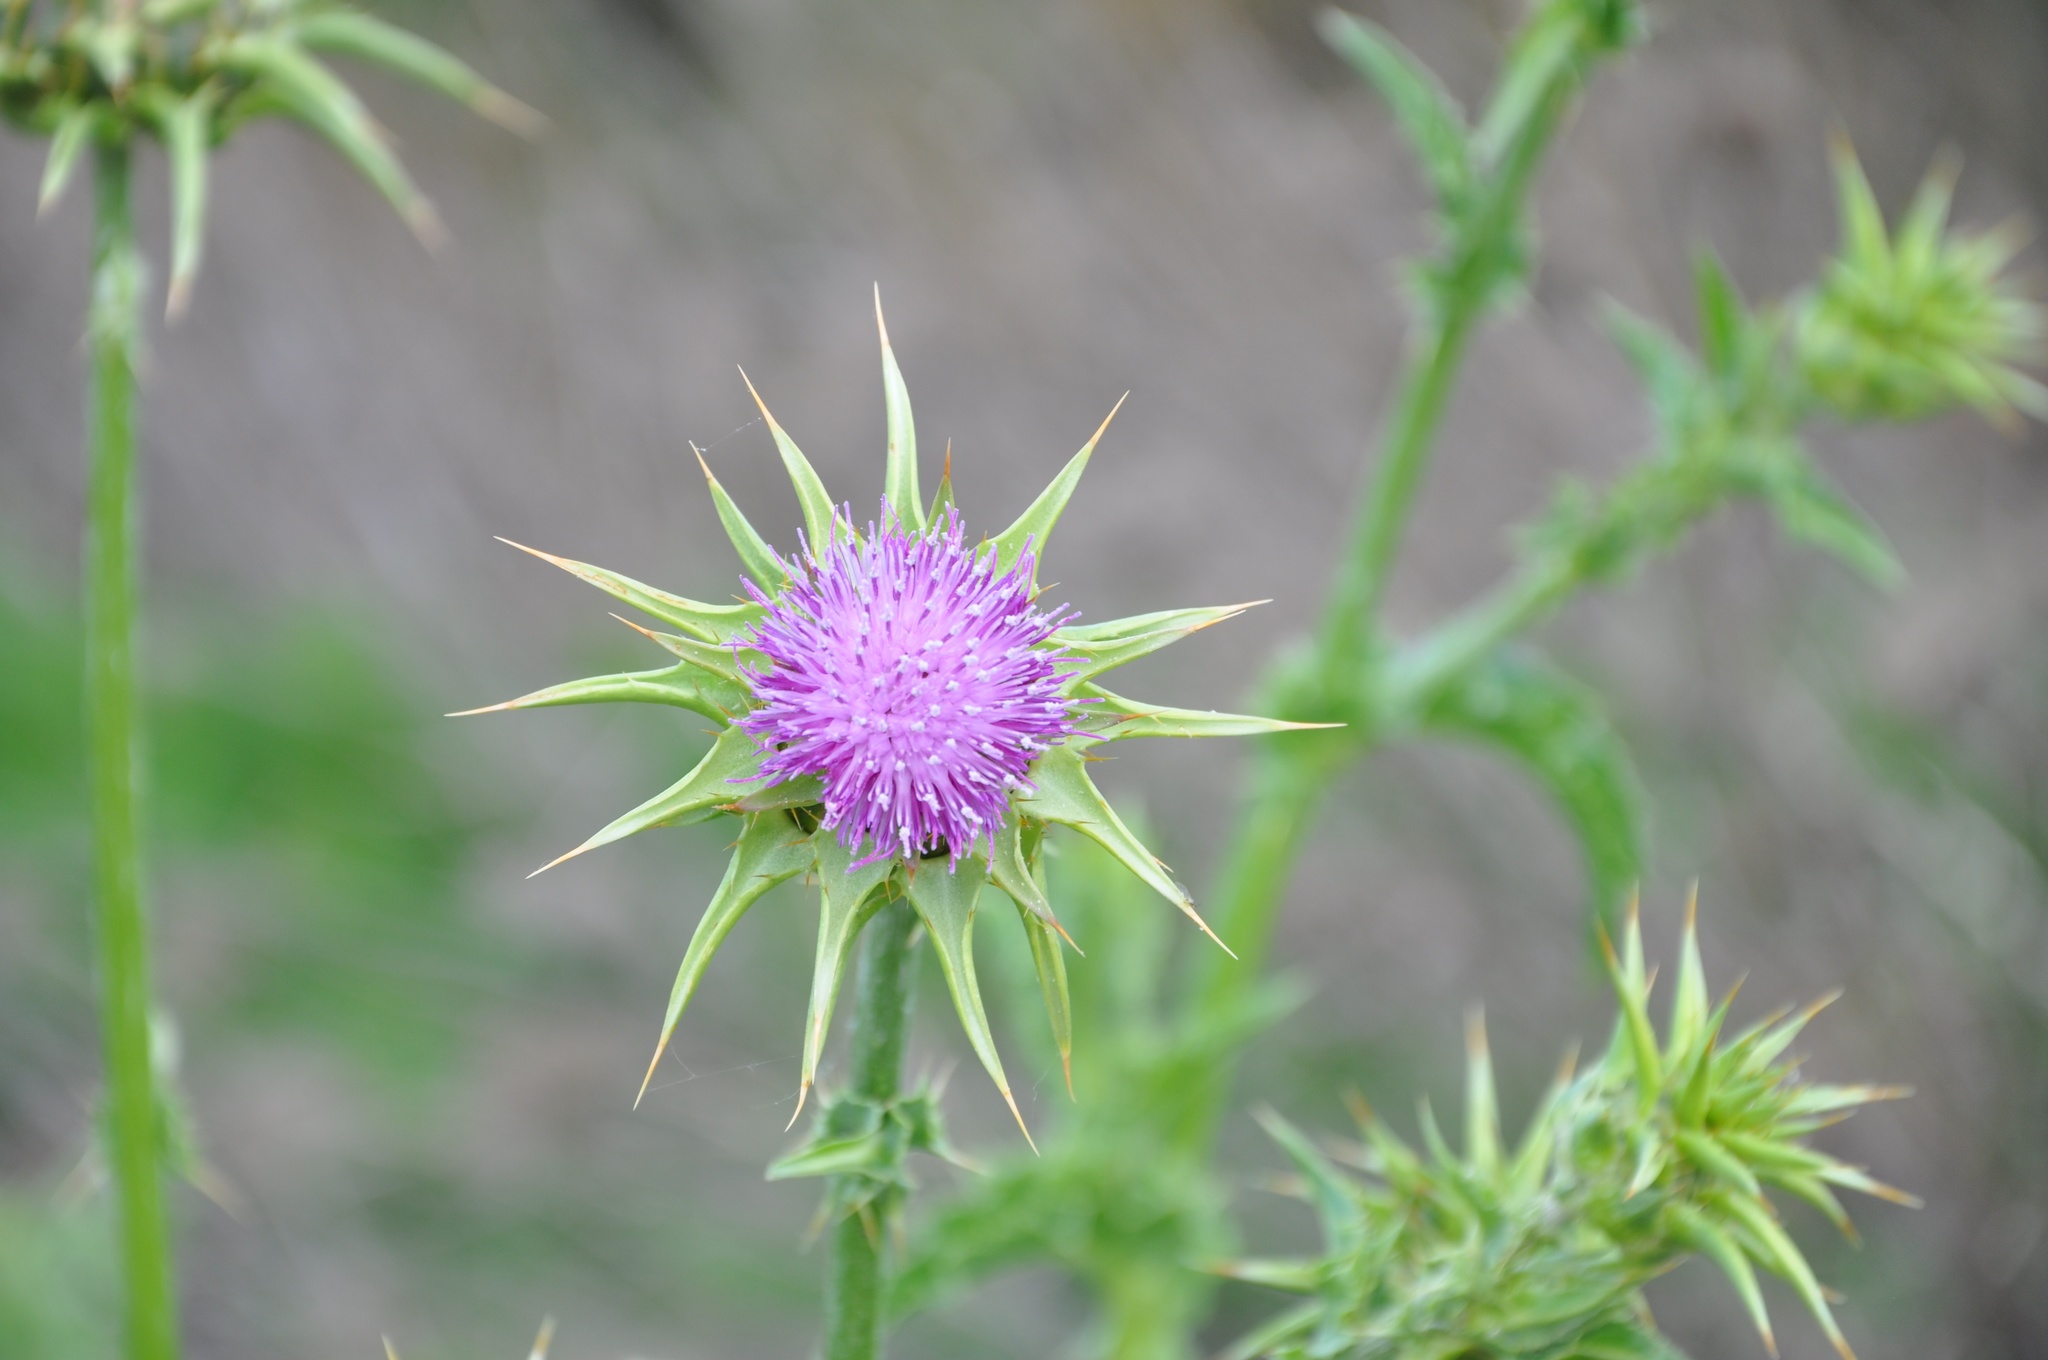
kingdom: Plantae
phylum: Tracheophyta
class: Magnoliopsida
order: Asterales
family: Asteraceae
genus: Silybum
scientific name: Silybum marianum
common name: Milk thistle
